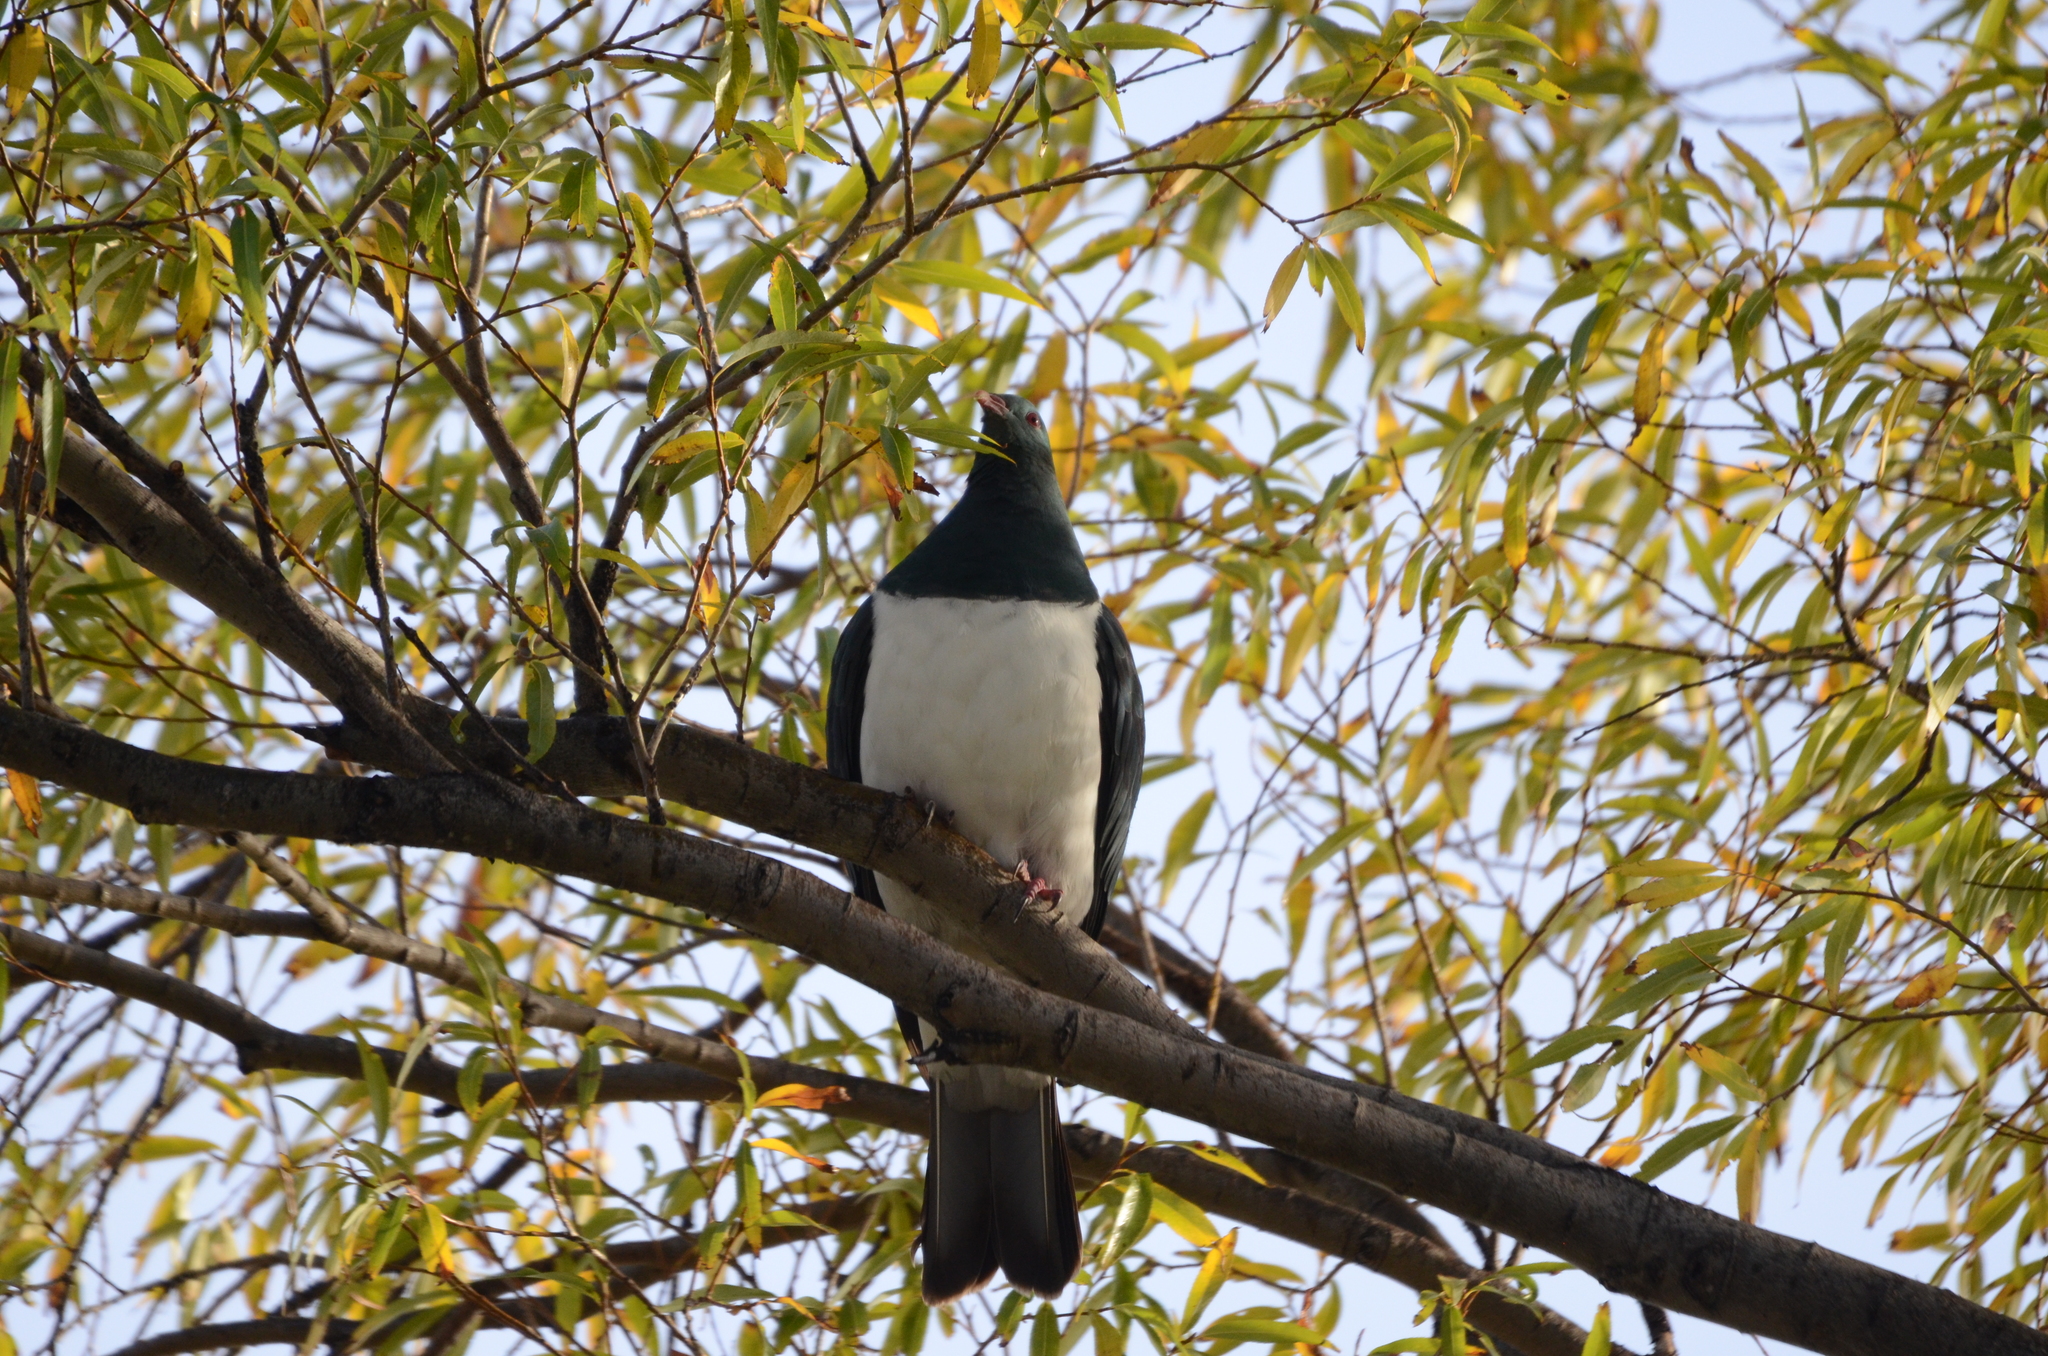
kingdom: Animalia
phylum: Chordata
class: Aves
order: Columbiformes
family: Columbidae
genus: Hemiphaga
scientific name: Hemiphaga novaeseelandiae
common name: New zealand pigeon
